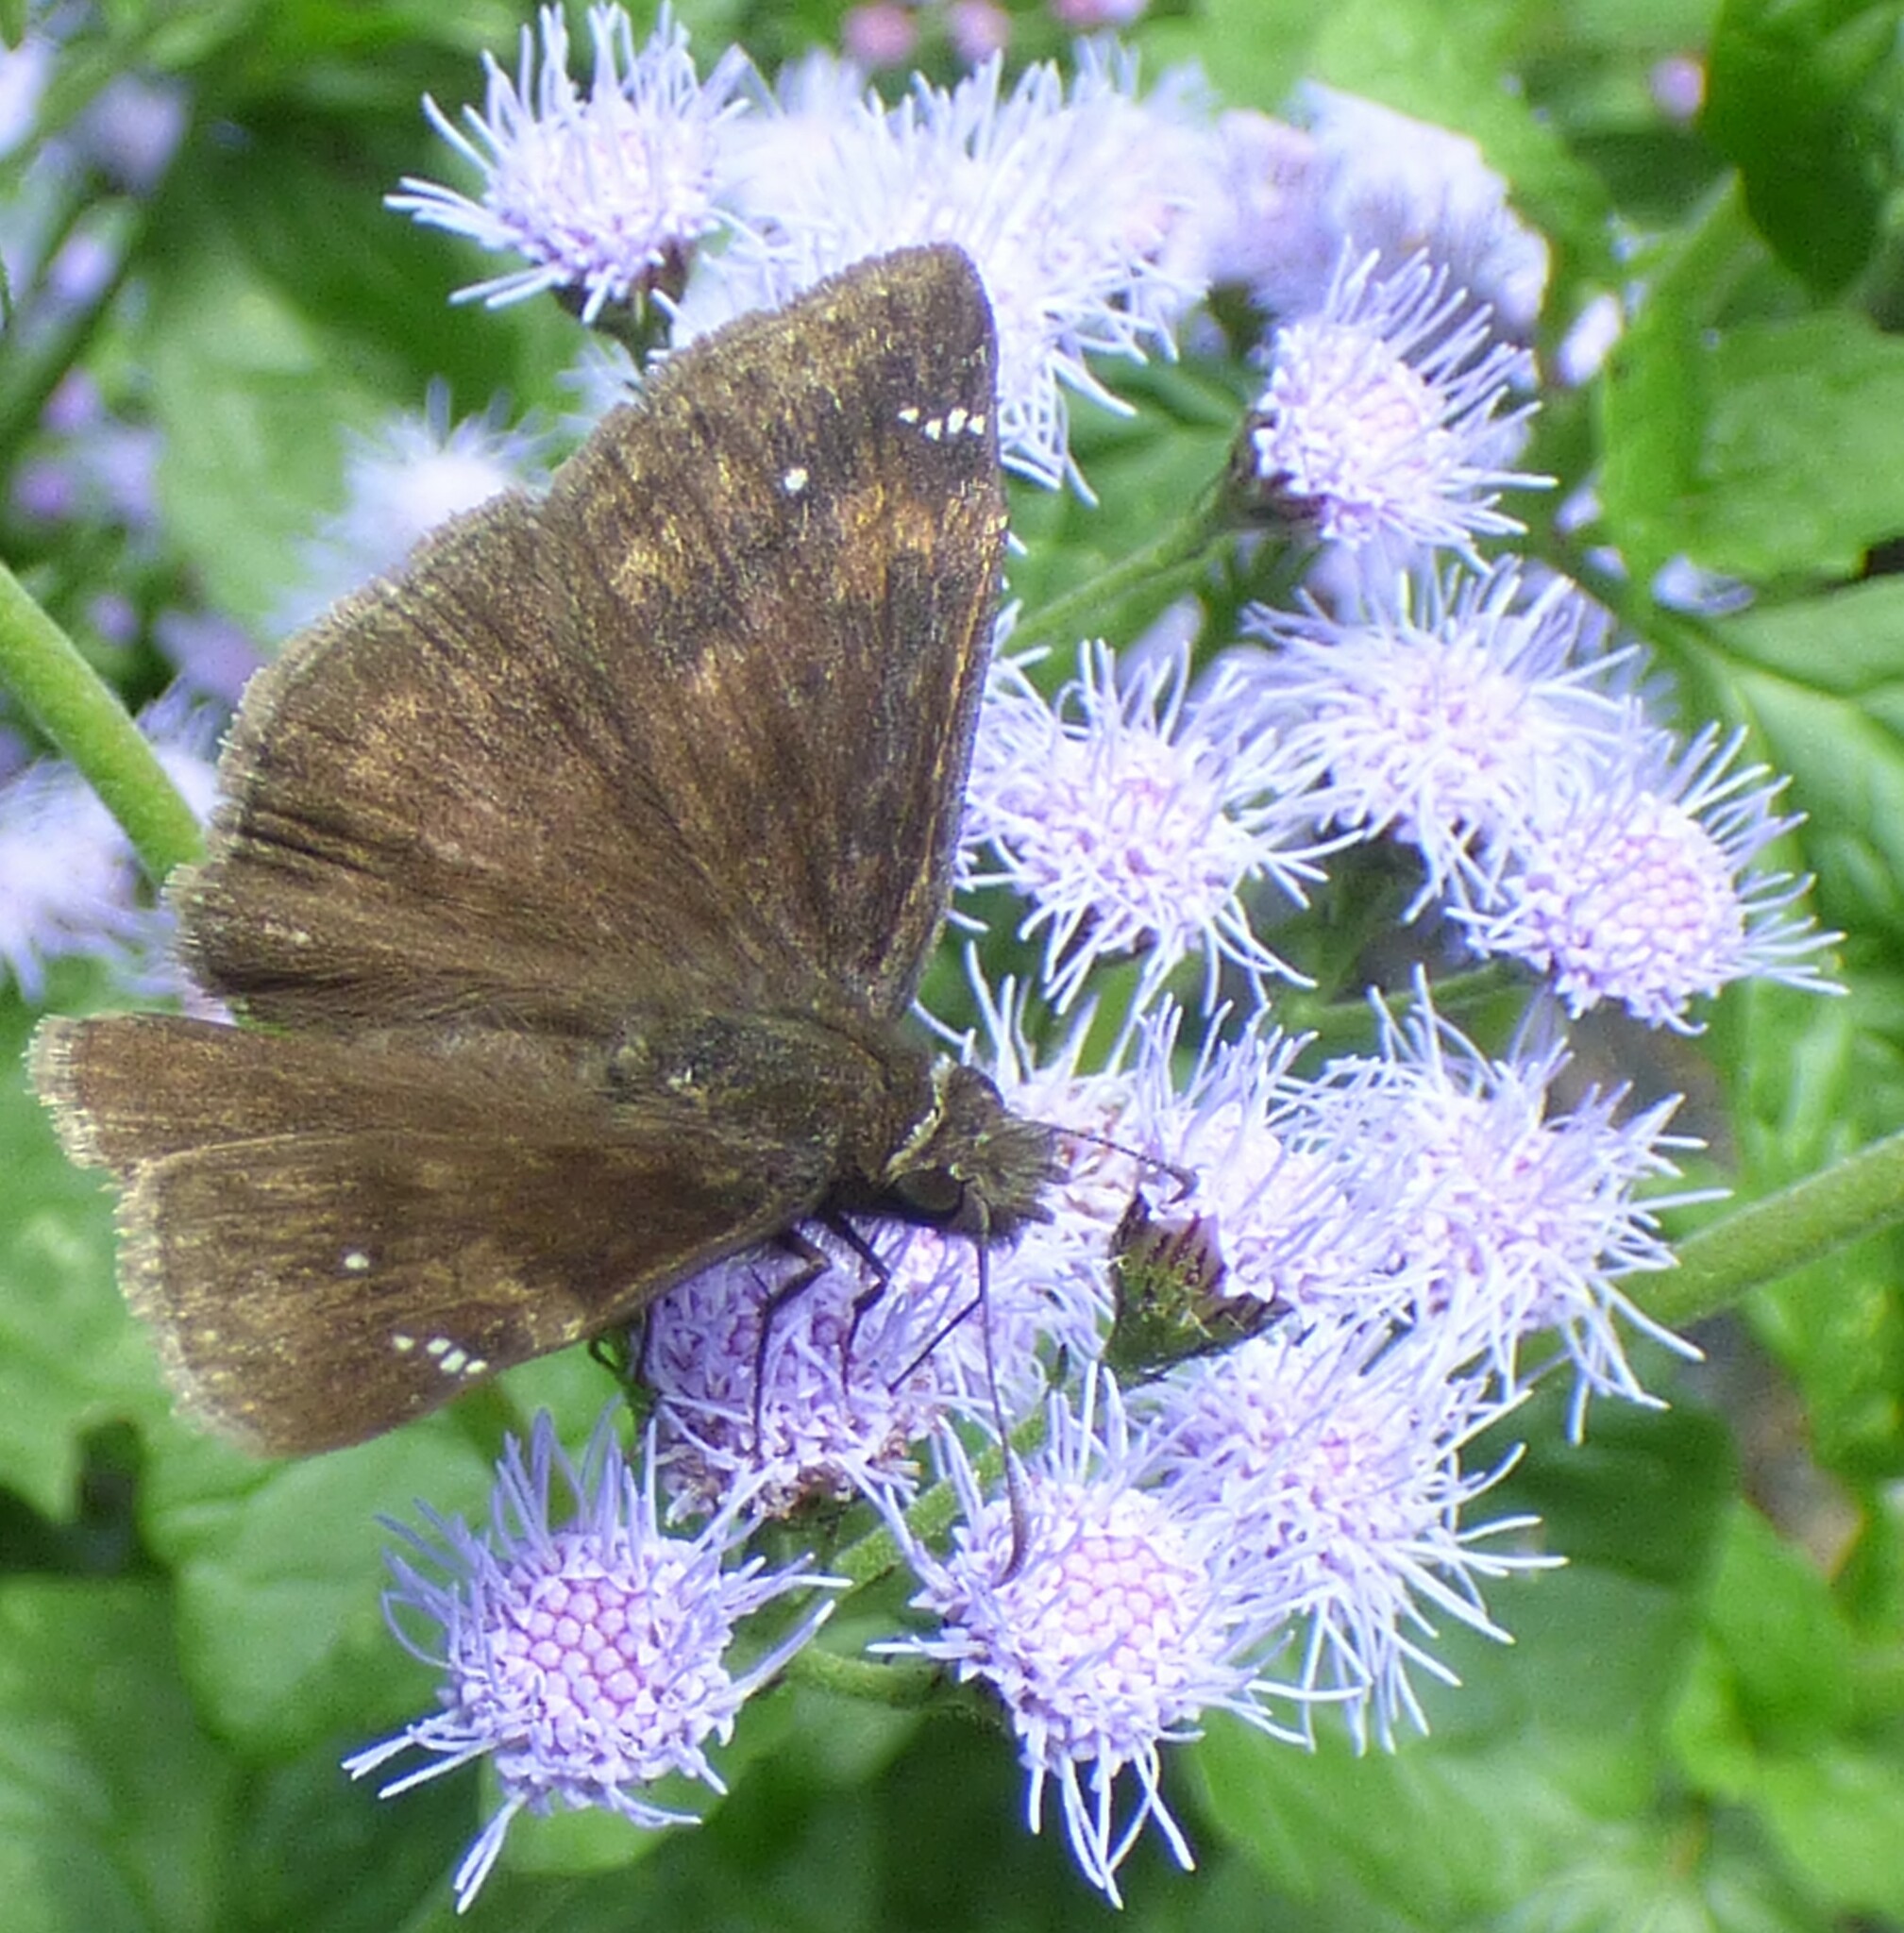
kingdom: Animalia
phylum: Arthropoda
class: Insecta
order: Lepidoptera
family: Hesperiidae
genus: Erynnis
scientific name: Erynnis zarucco
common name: Zarucco duskywing
